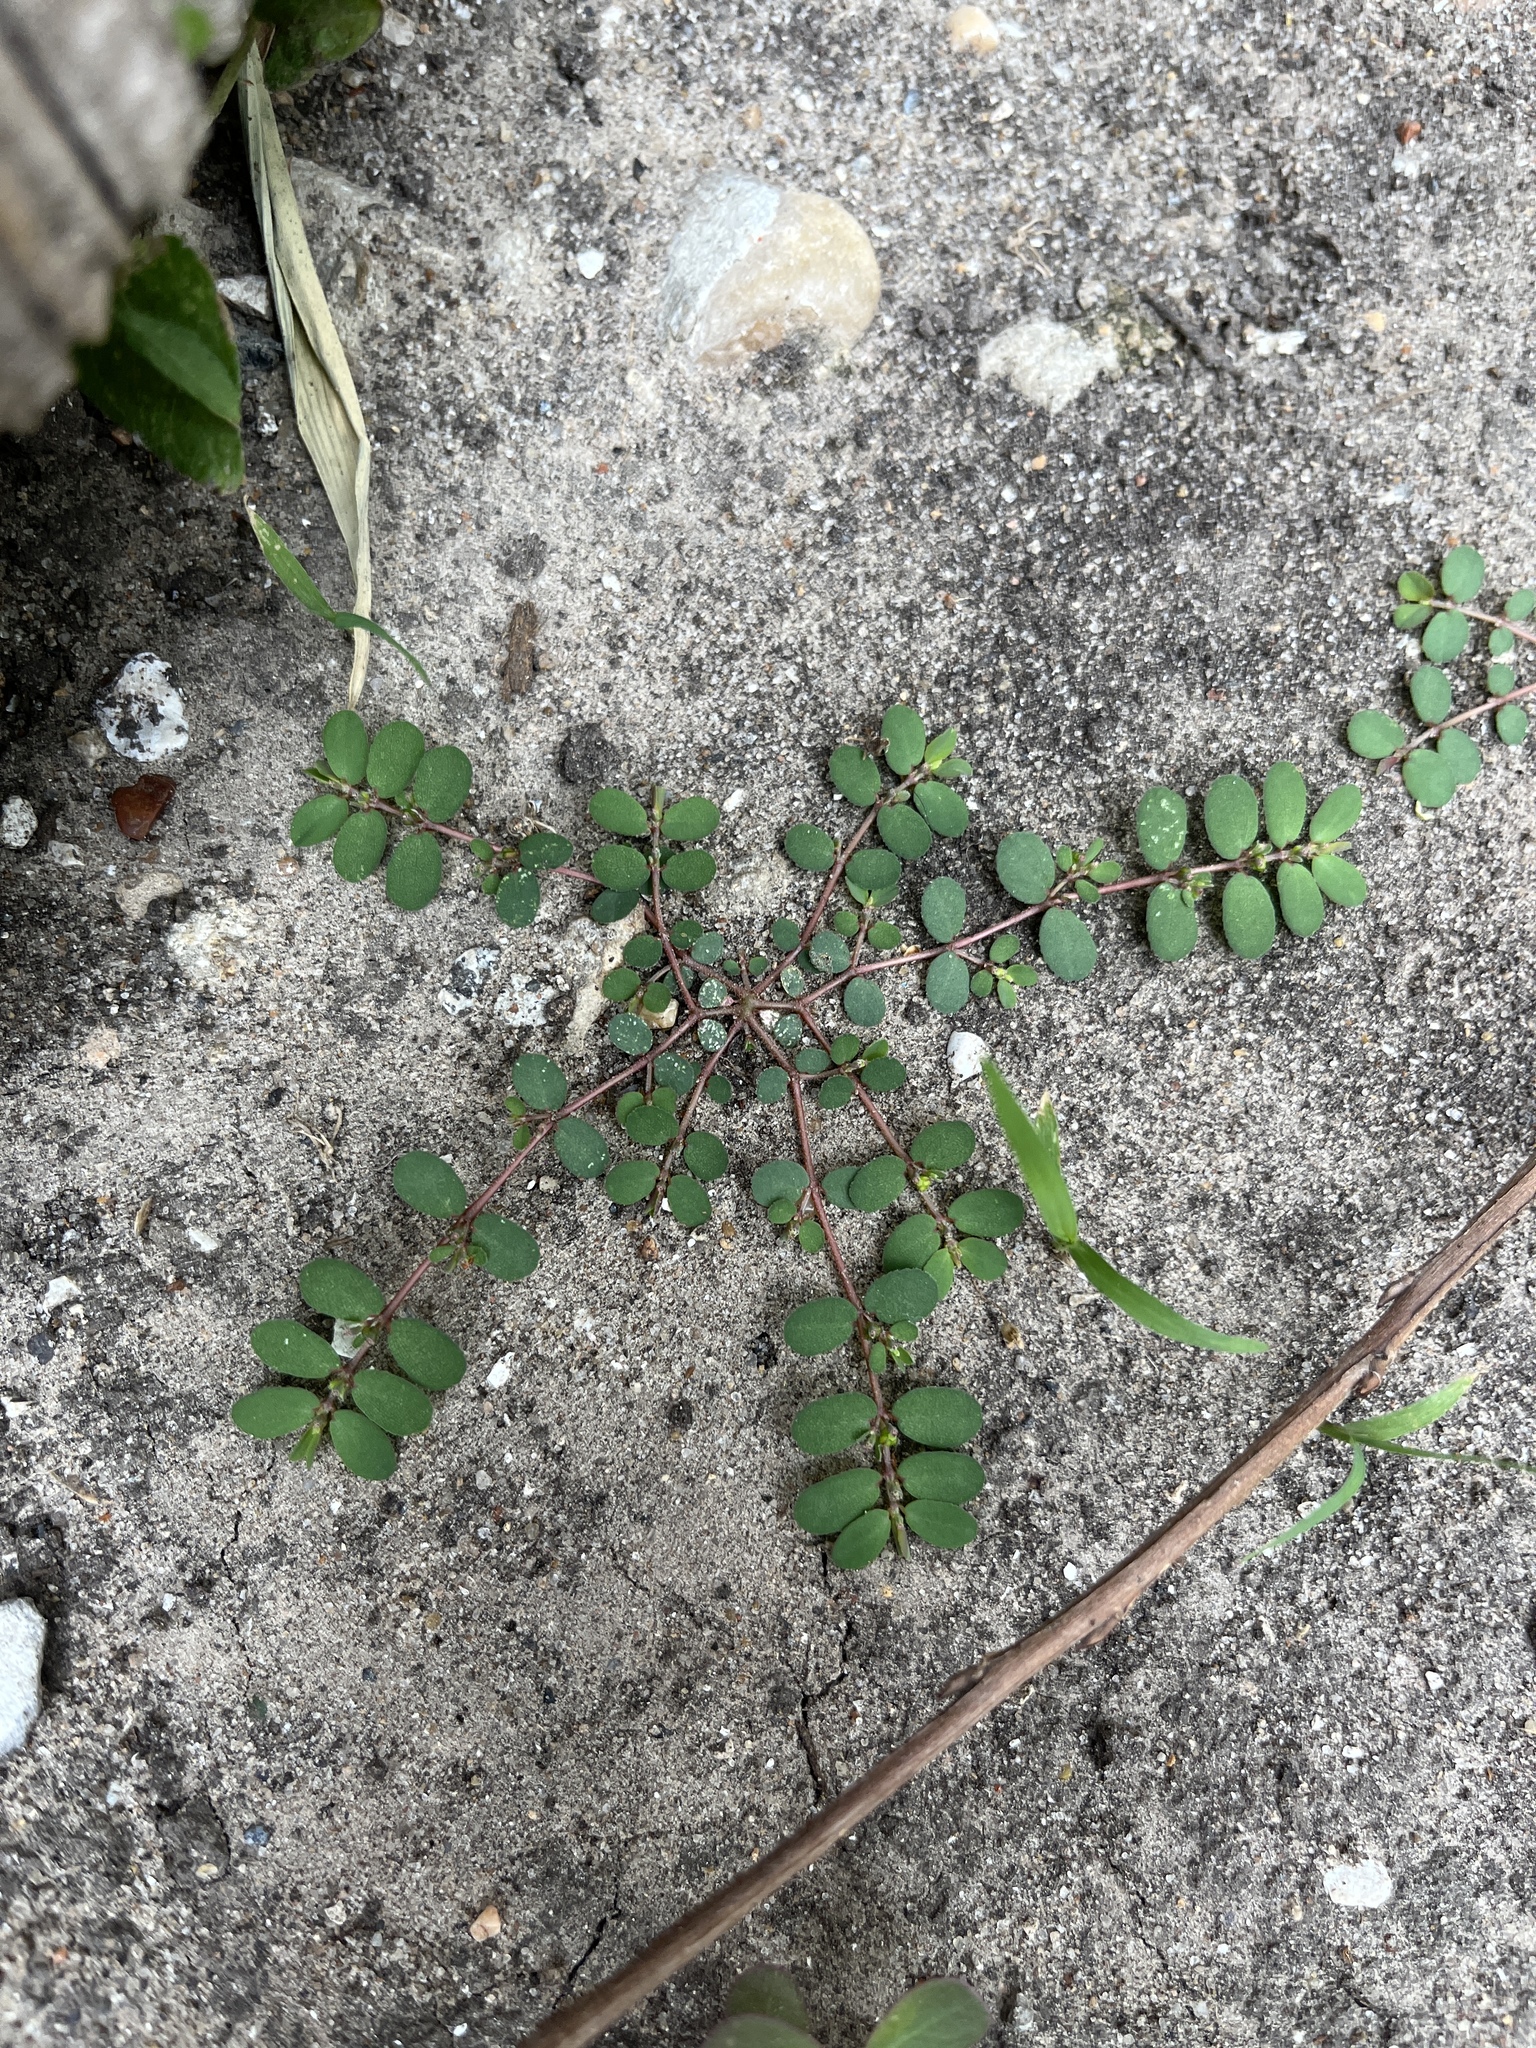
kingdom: Plantae
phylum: Tracheophyta
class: Magnoliopsida
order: Malpighiales
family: Euphorbiaceae
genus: Euphorbia
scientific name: Euphorbia prostrata
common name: Prostrate sandmat
